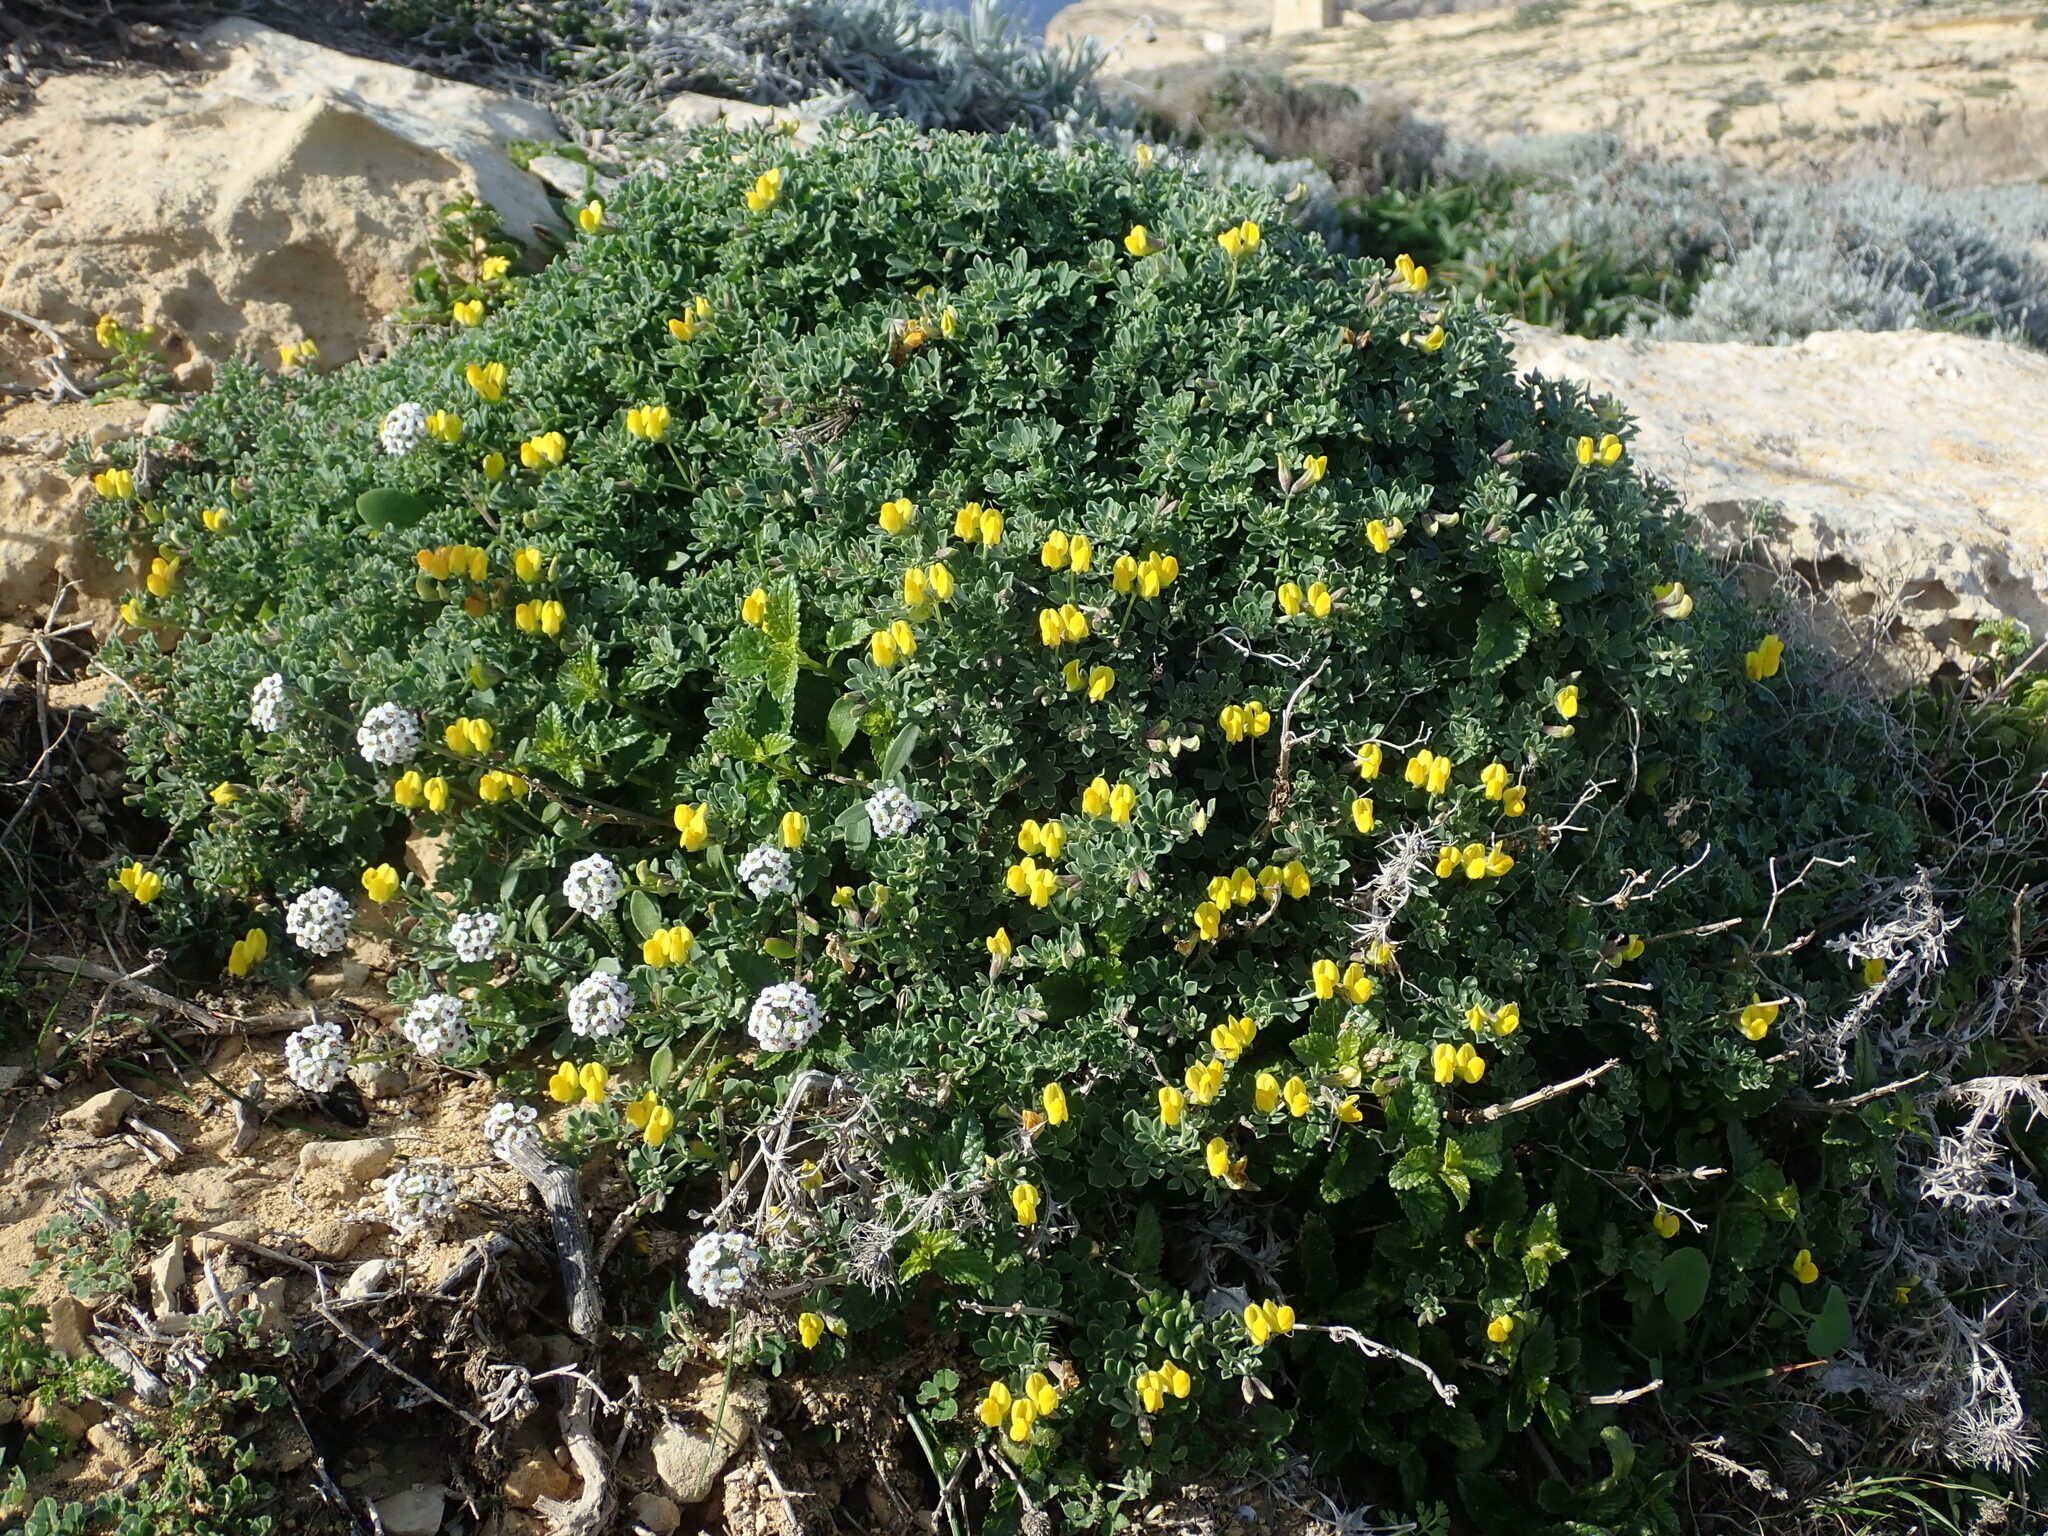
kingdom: Plantae
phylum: Tracheophyta
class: Magnoliopsida
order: Fabales
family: Fabaceae
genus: Lotus
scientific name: Lotus cytisoides
